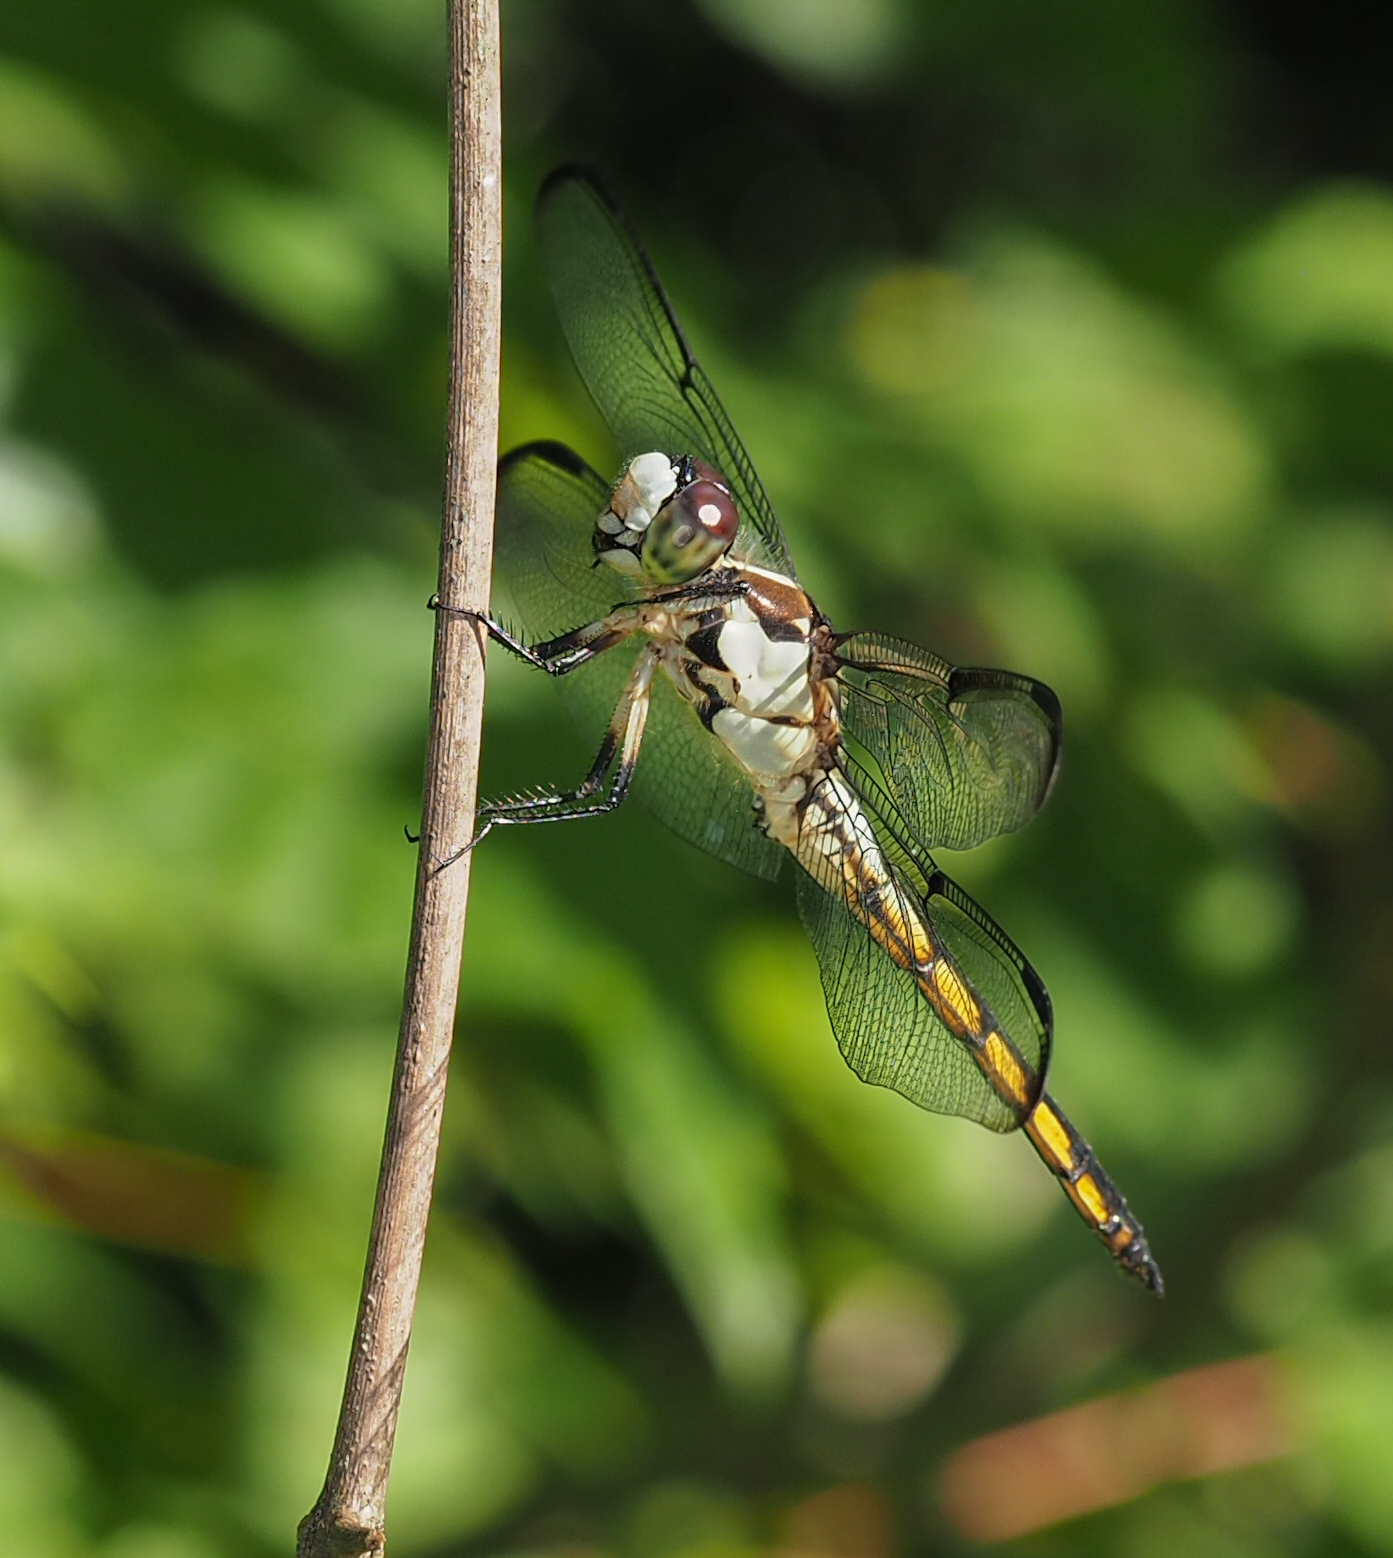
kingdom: Animalia
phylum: Arthropoda
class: Insecta
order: Odonata
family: Libellulidae
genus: Libellula
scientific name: Libellula vibrans
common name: Great blue skimmer
